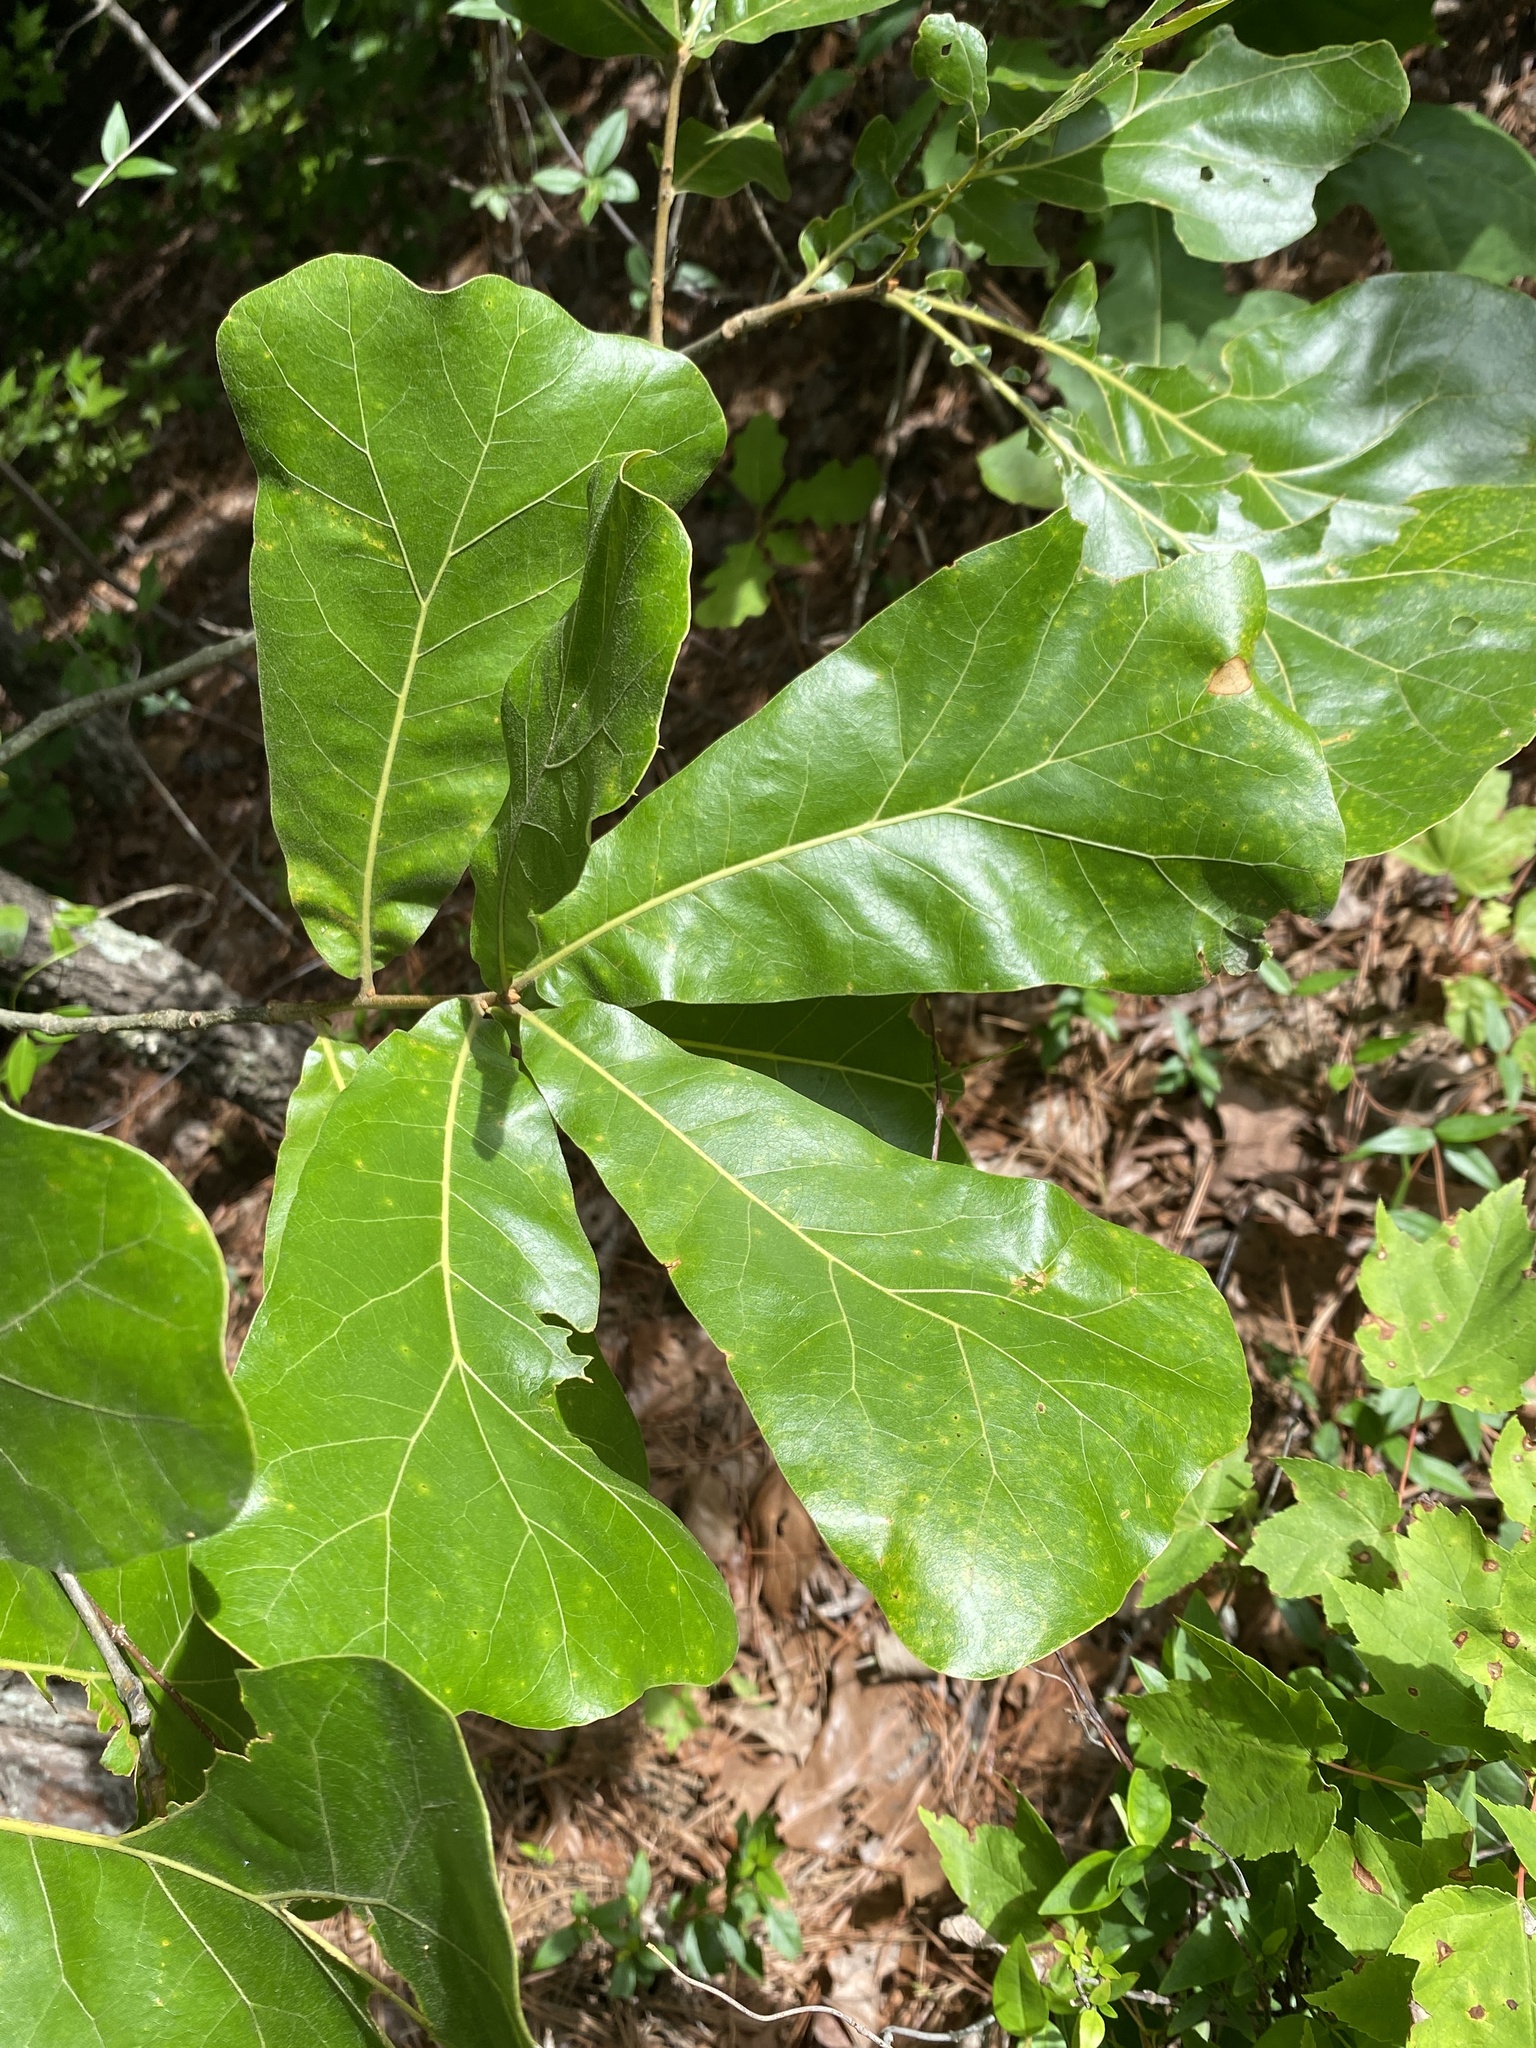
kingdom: Plantae
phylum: Tracheophyta
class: Magnoliopsida
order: Fagales
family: Fagaceae
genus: Quercus
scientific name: Quercus marilandica
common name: Blackjack oak
